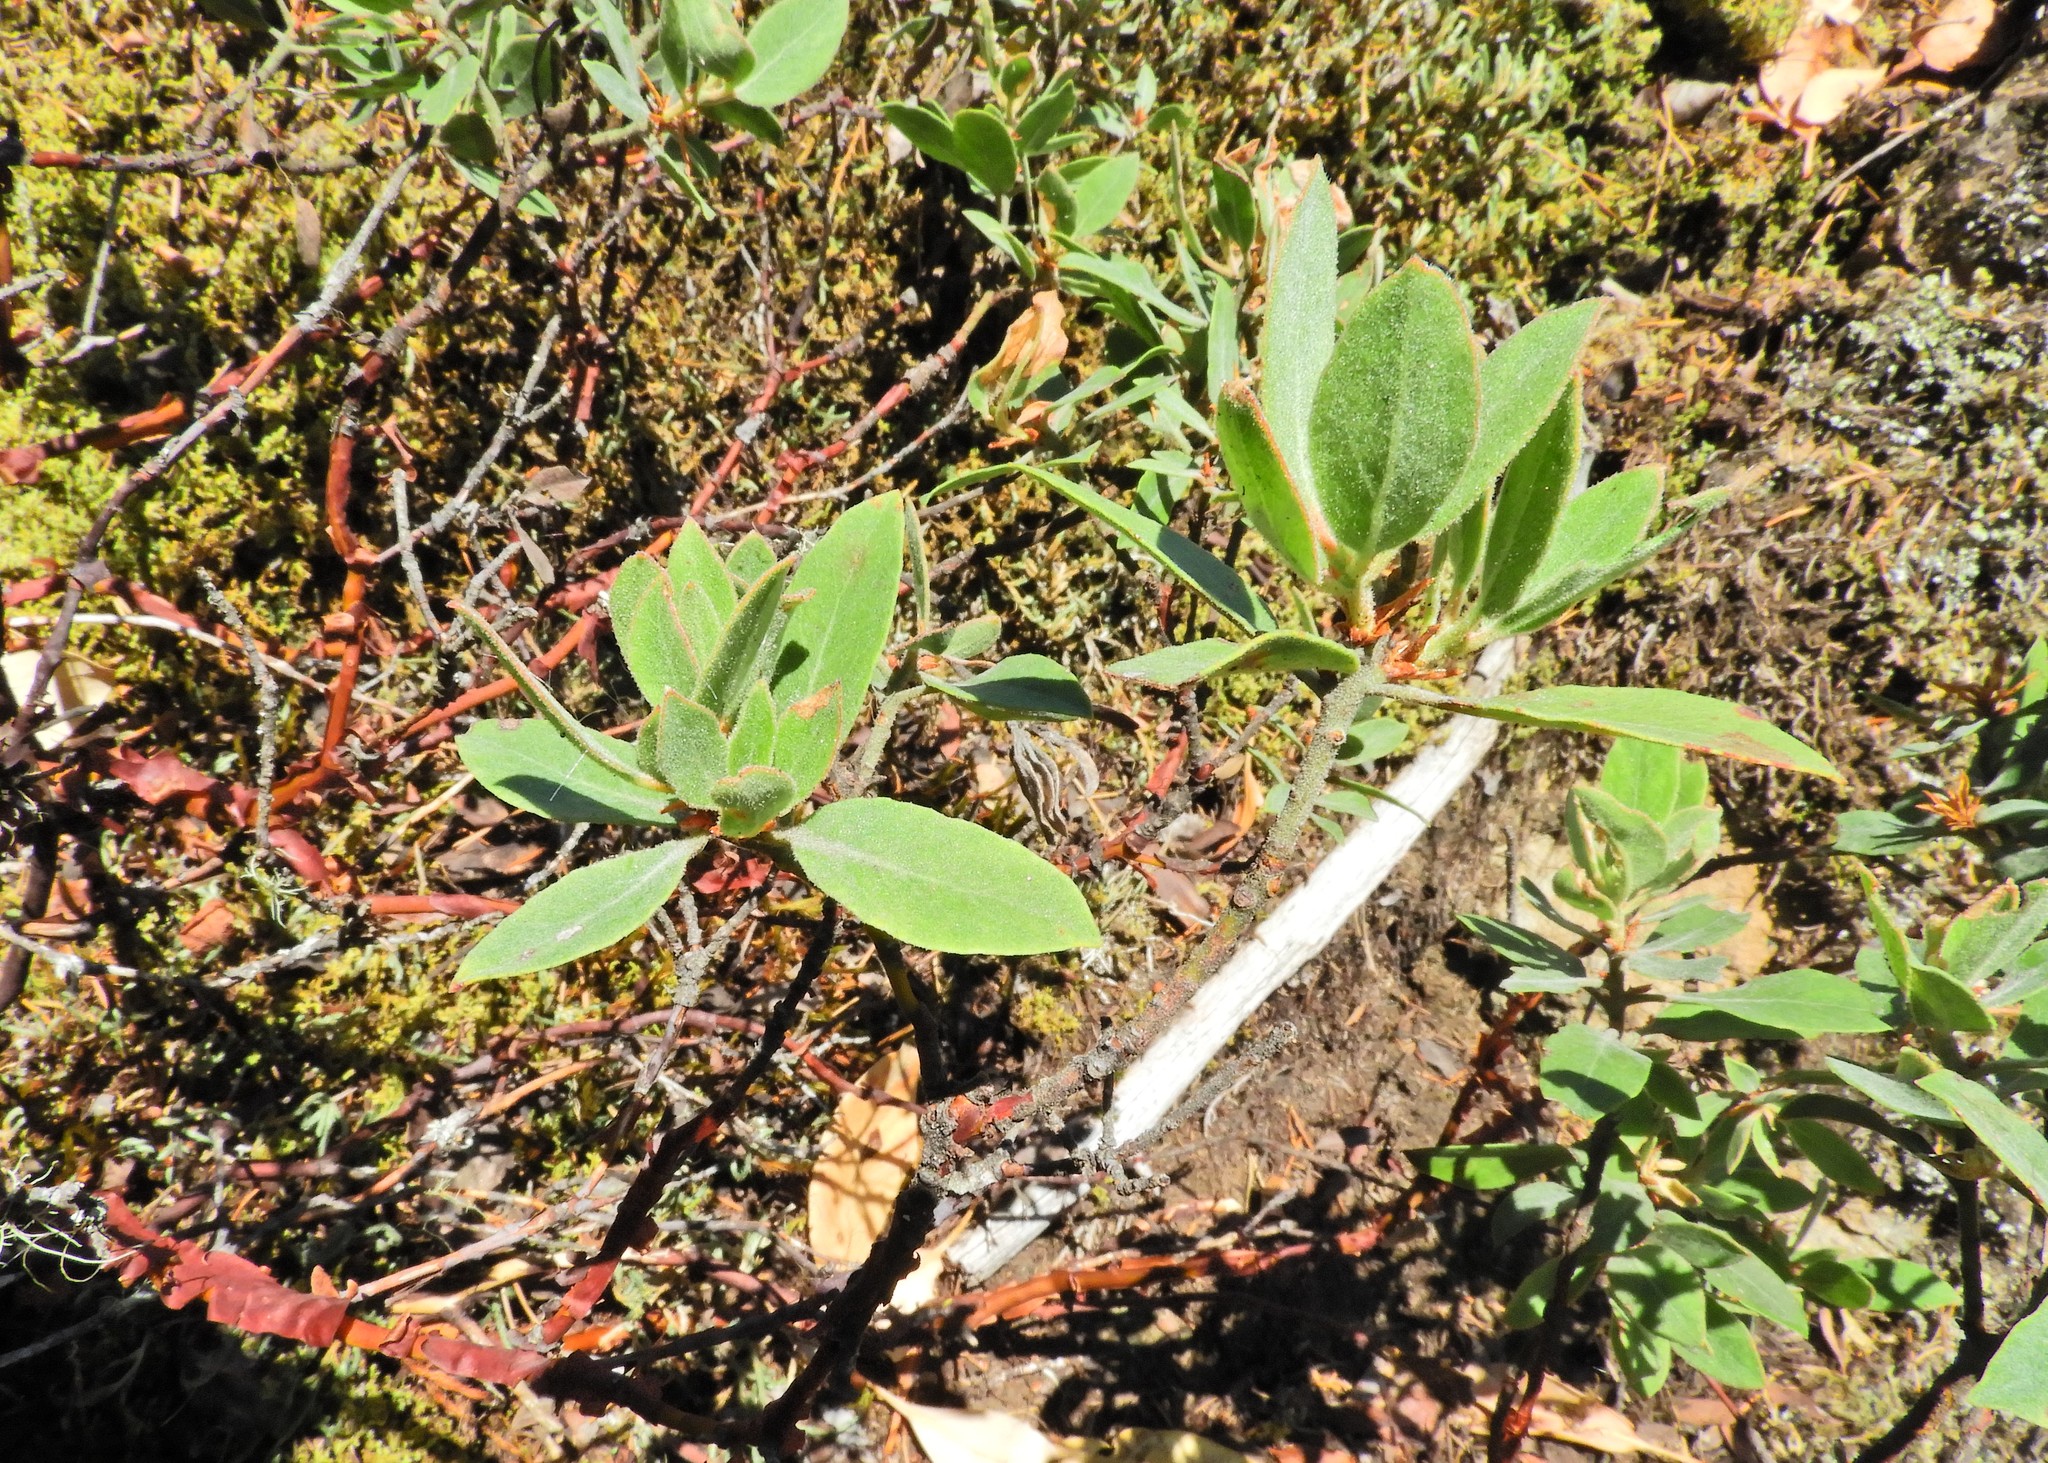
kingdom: Plantae
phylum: Tracheophyta
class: Magnoliopsida
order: Ericales
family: Ericaceae
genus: Arctostaphylos
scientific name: Arctostaphylos columbiana
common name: Bristly bearberry
